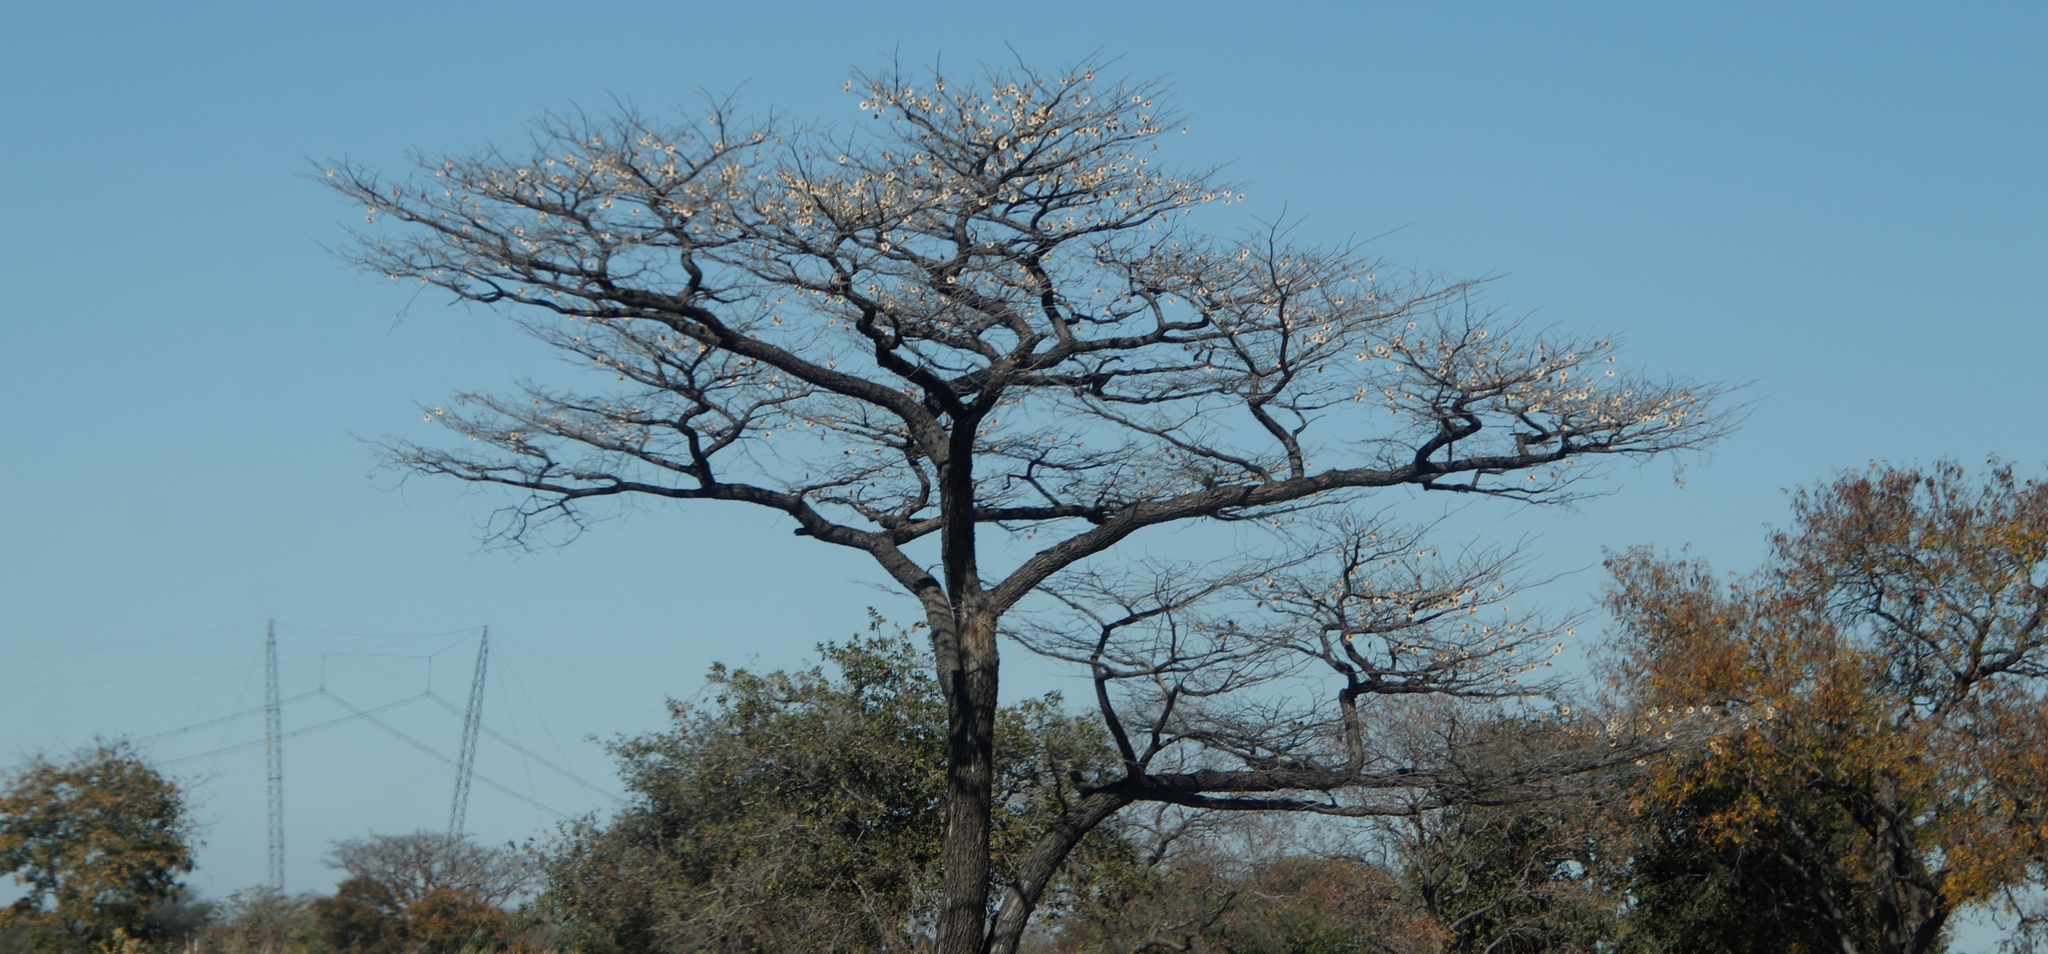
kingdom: Plantae
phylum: Tracheophyta
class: Magnoliopsida
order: Fabales
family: Fabaceae
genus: Pterocarpus
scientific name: Pterocarpus angolensis
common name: Bloodwood tree
